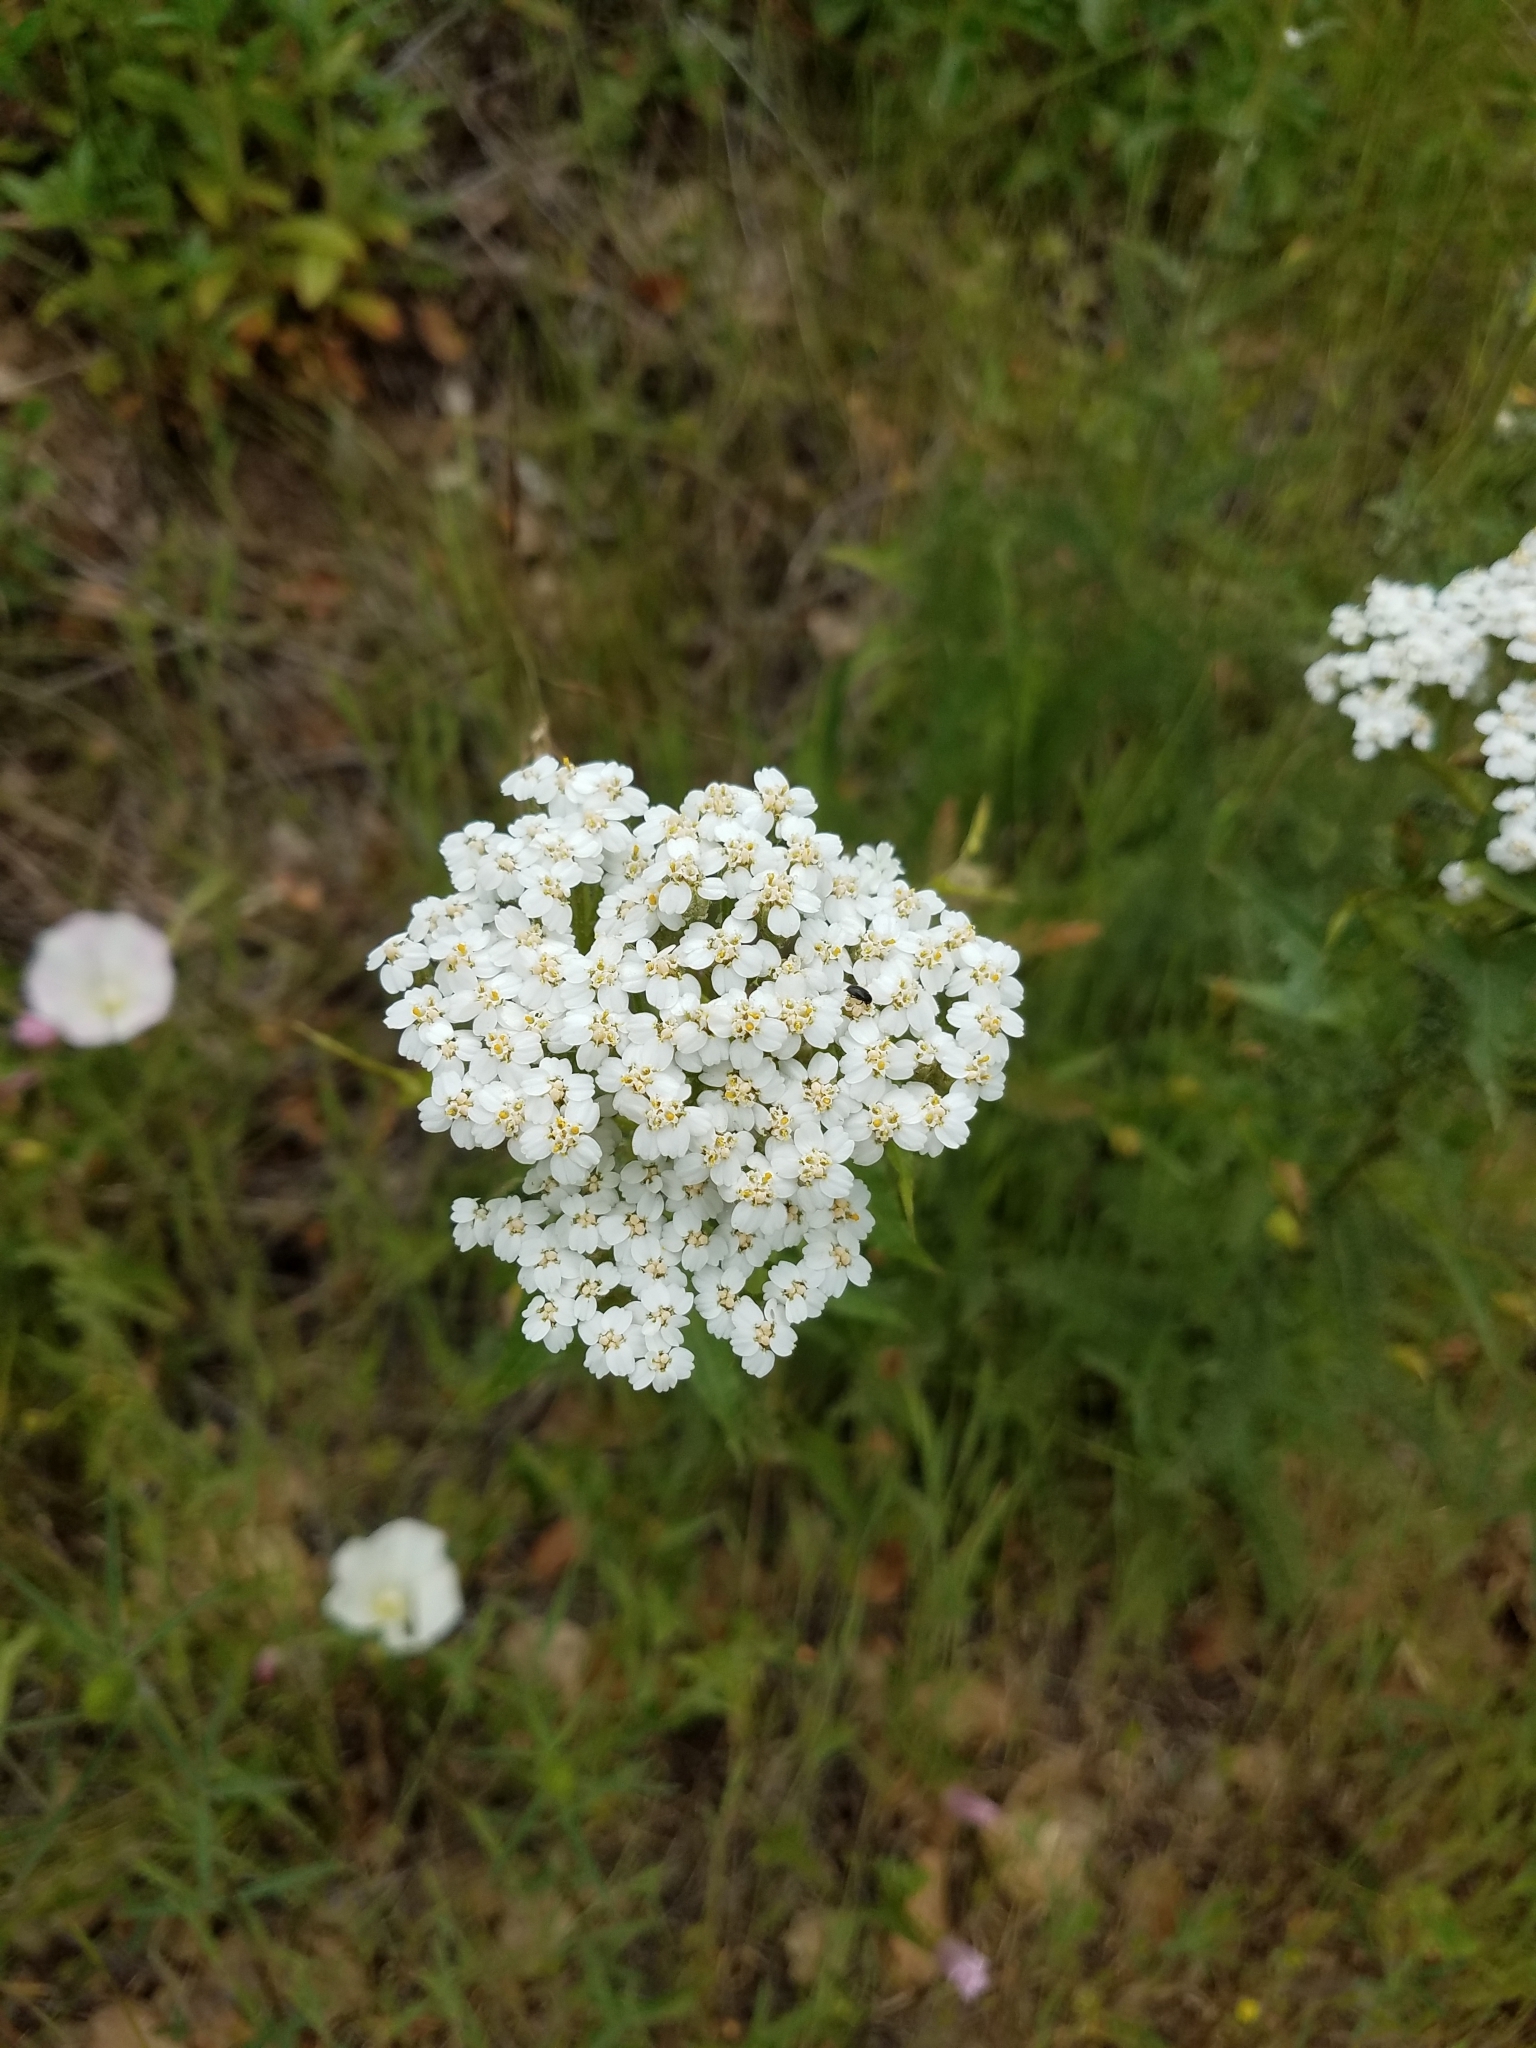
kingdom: Plantae
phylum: Tracheophyta
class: Magnoliopsida
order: Asterales
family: Asteraceae
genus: Achillea
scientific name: Achillea millefolium
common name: Yarrow
